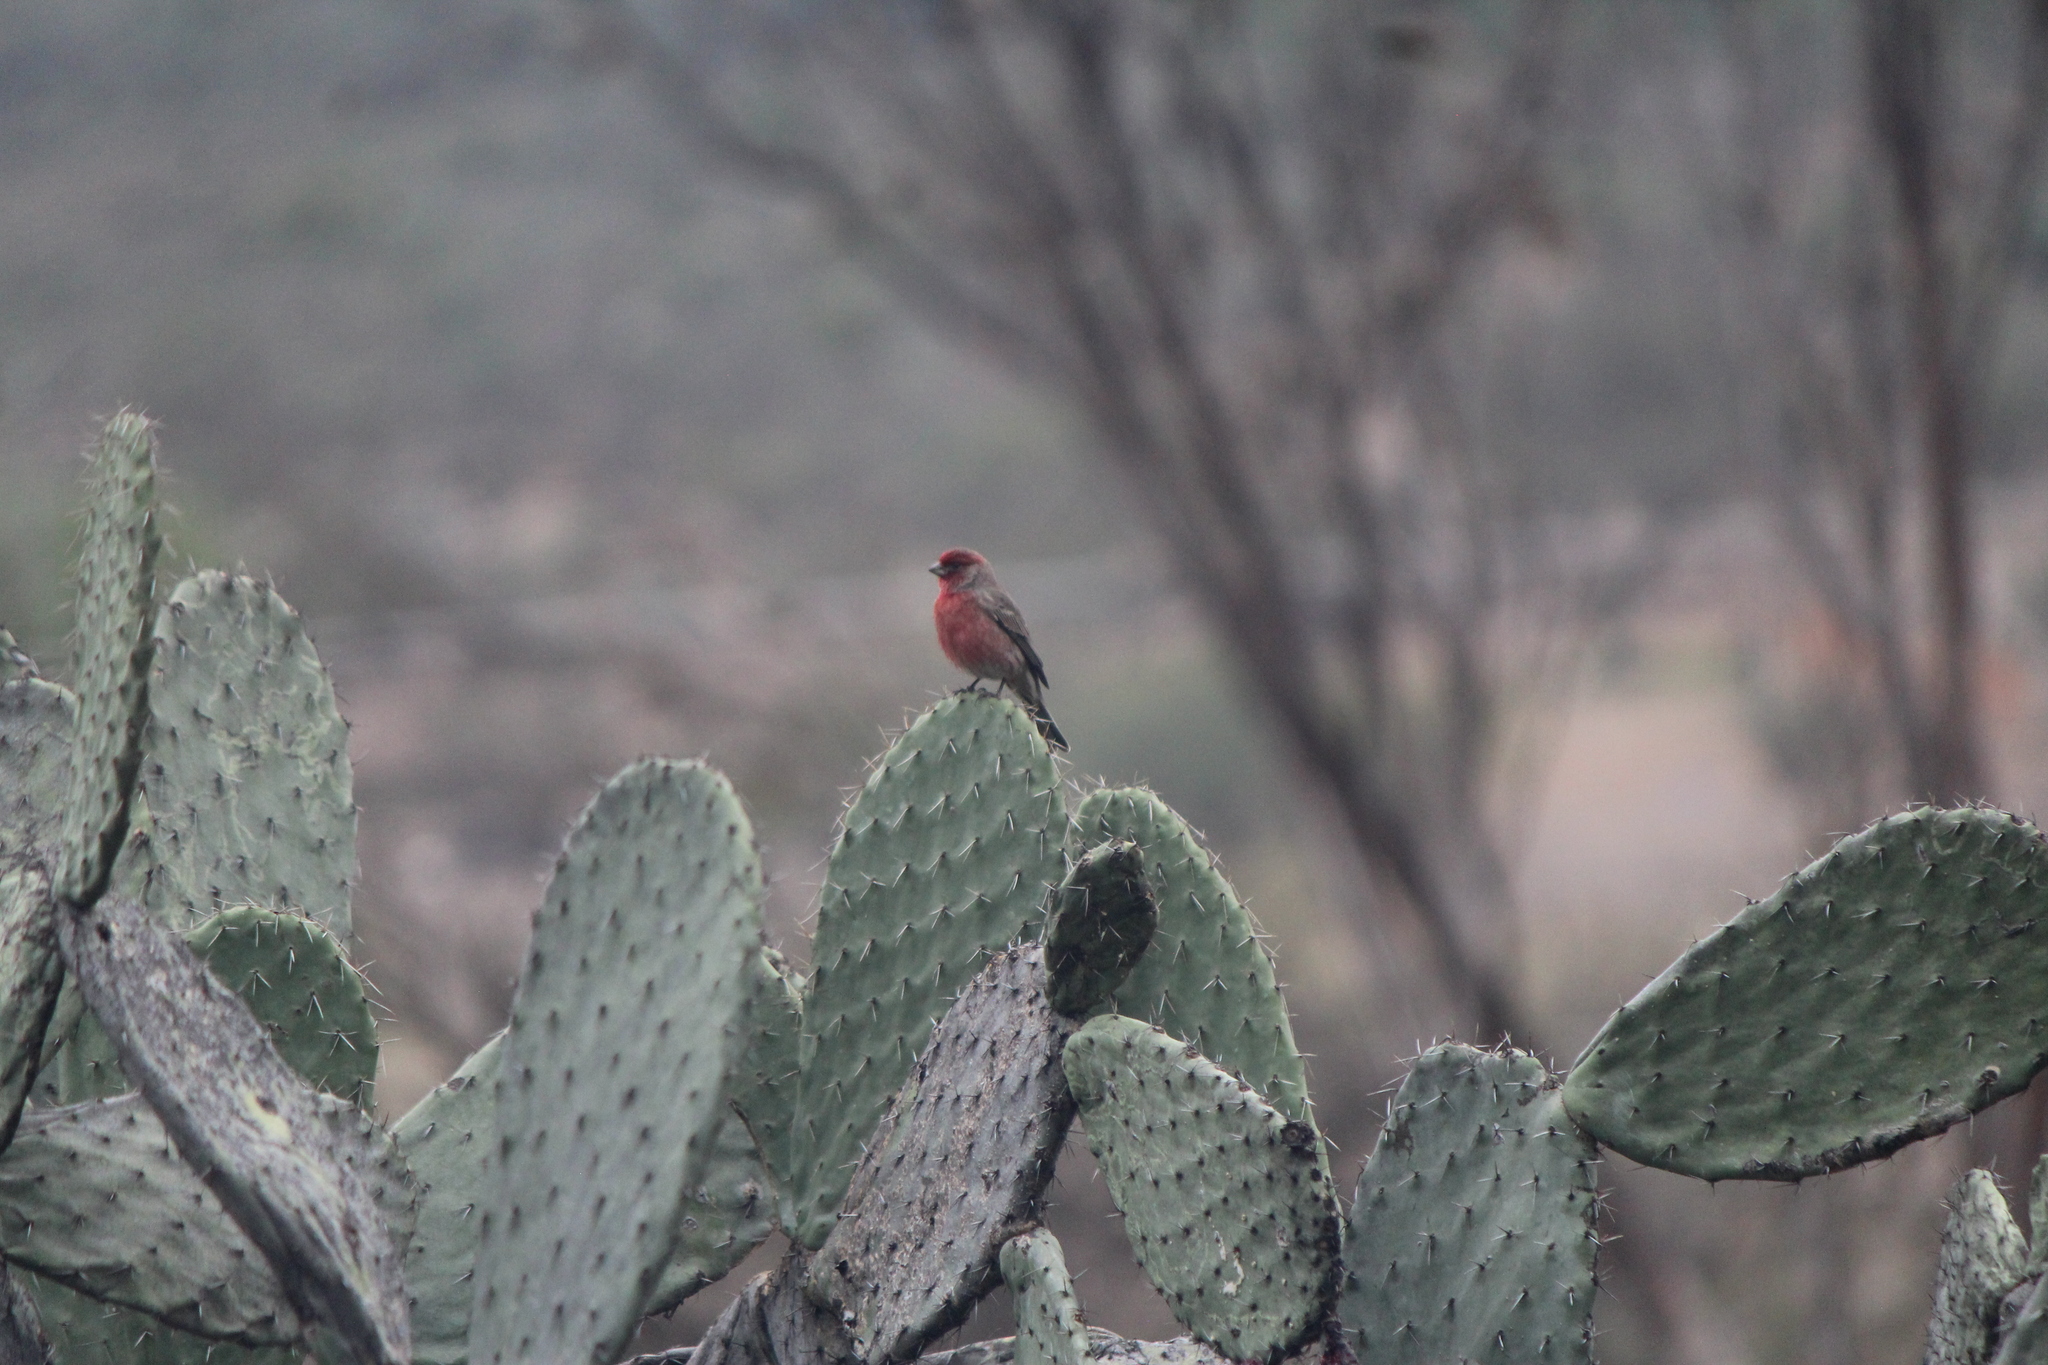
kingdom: Animalia
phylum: Chordata
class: Aves
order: Passeriformes
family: Fringillidae
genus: Haemorhous
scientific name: Haemorhous mexicanus
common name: House finch
